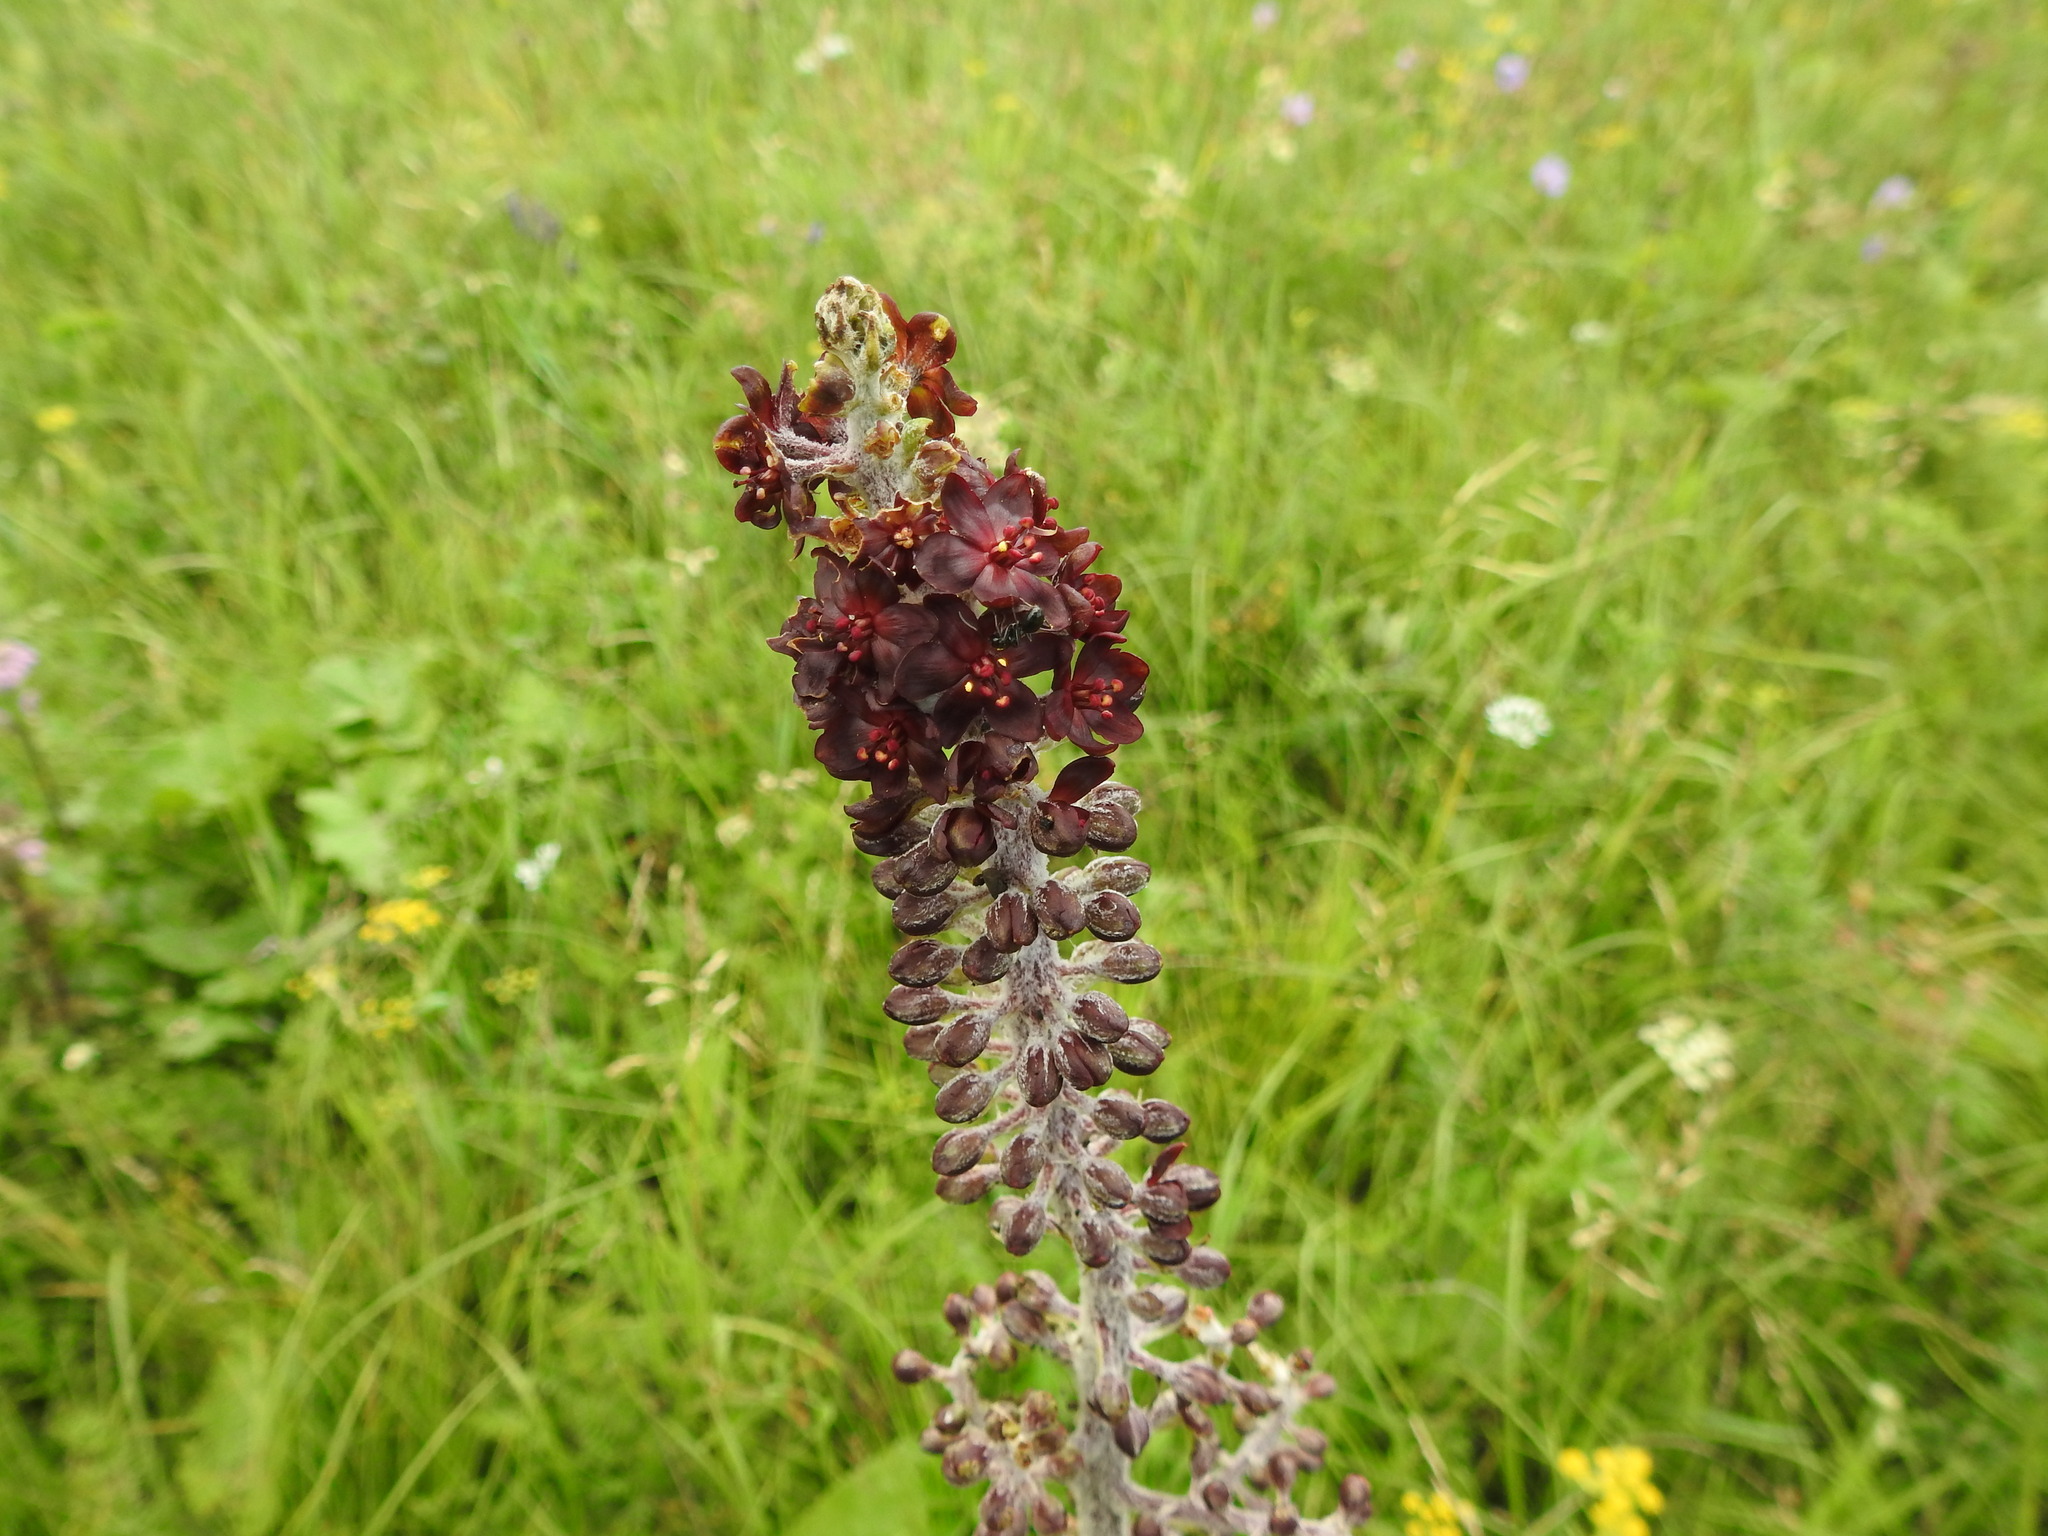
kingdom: Plantae
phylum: Tracheophyta
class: Liliopsida
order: Liliales
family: Melanthiaceae
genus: Veratrum
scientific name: Veratrum nigrum
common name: Black veratrum
